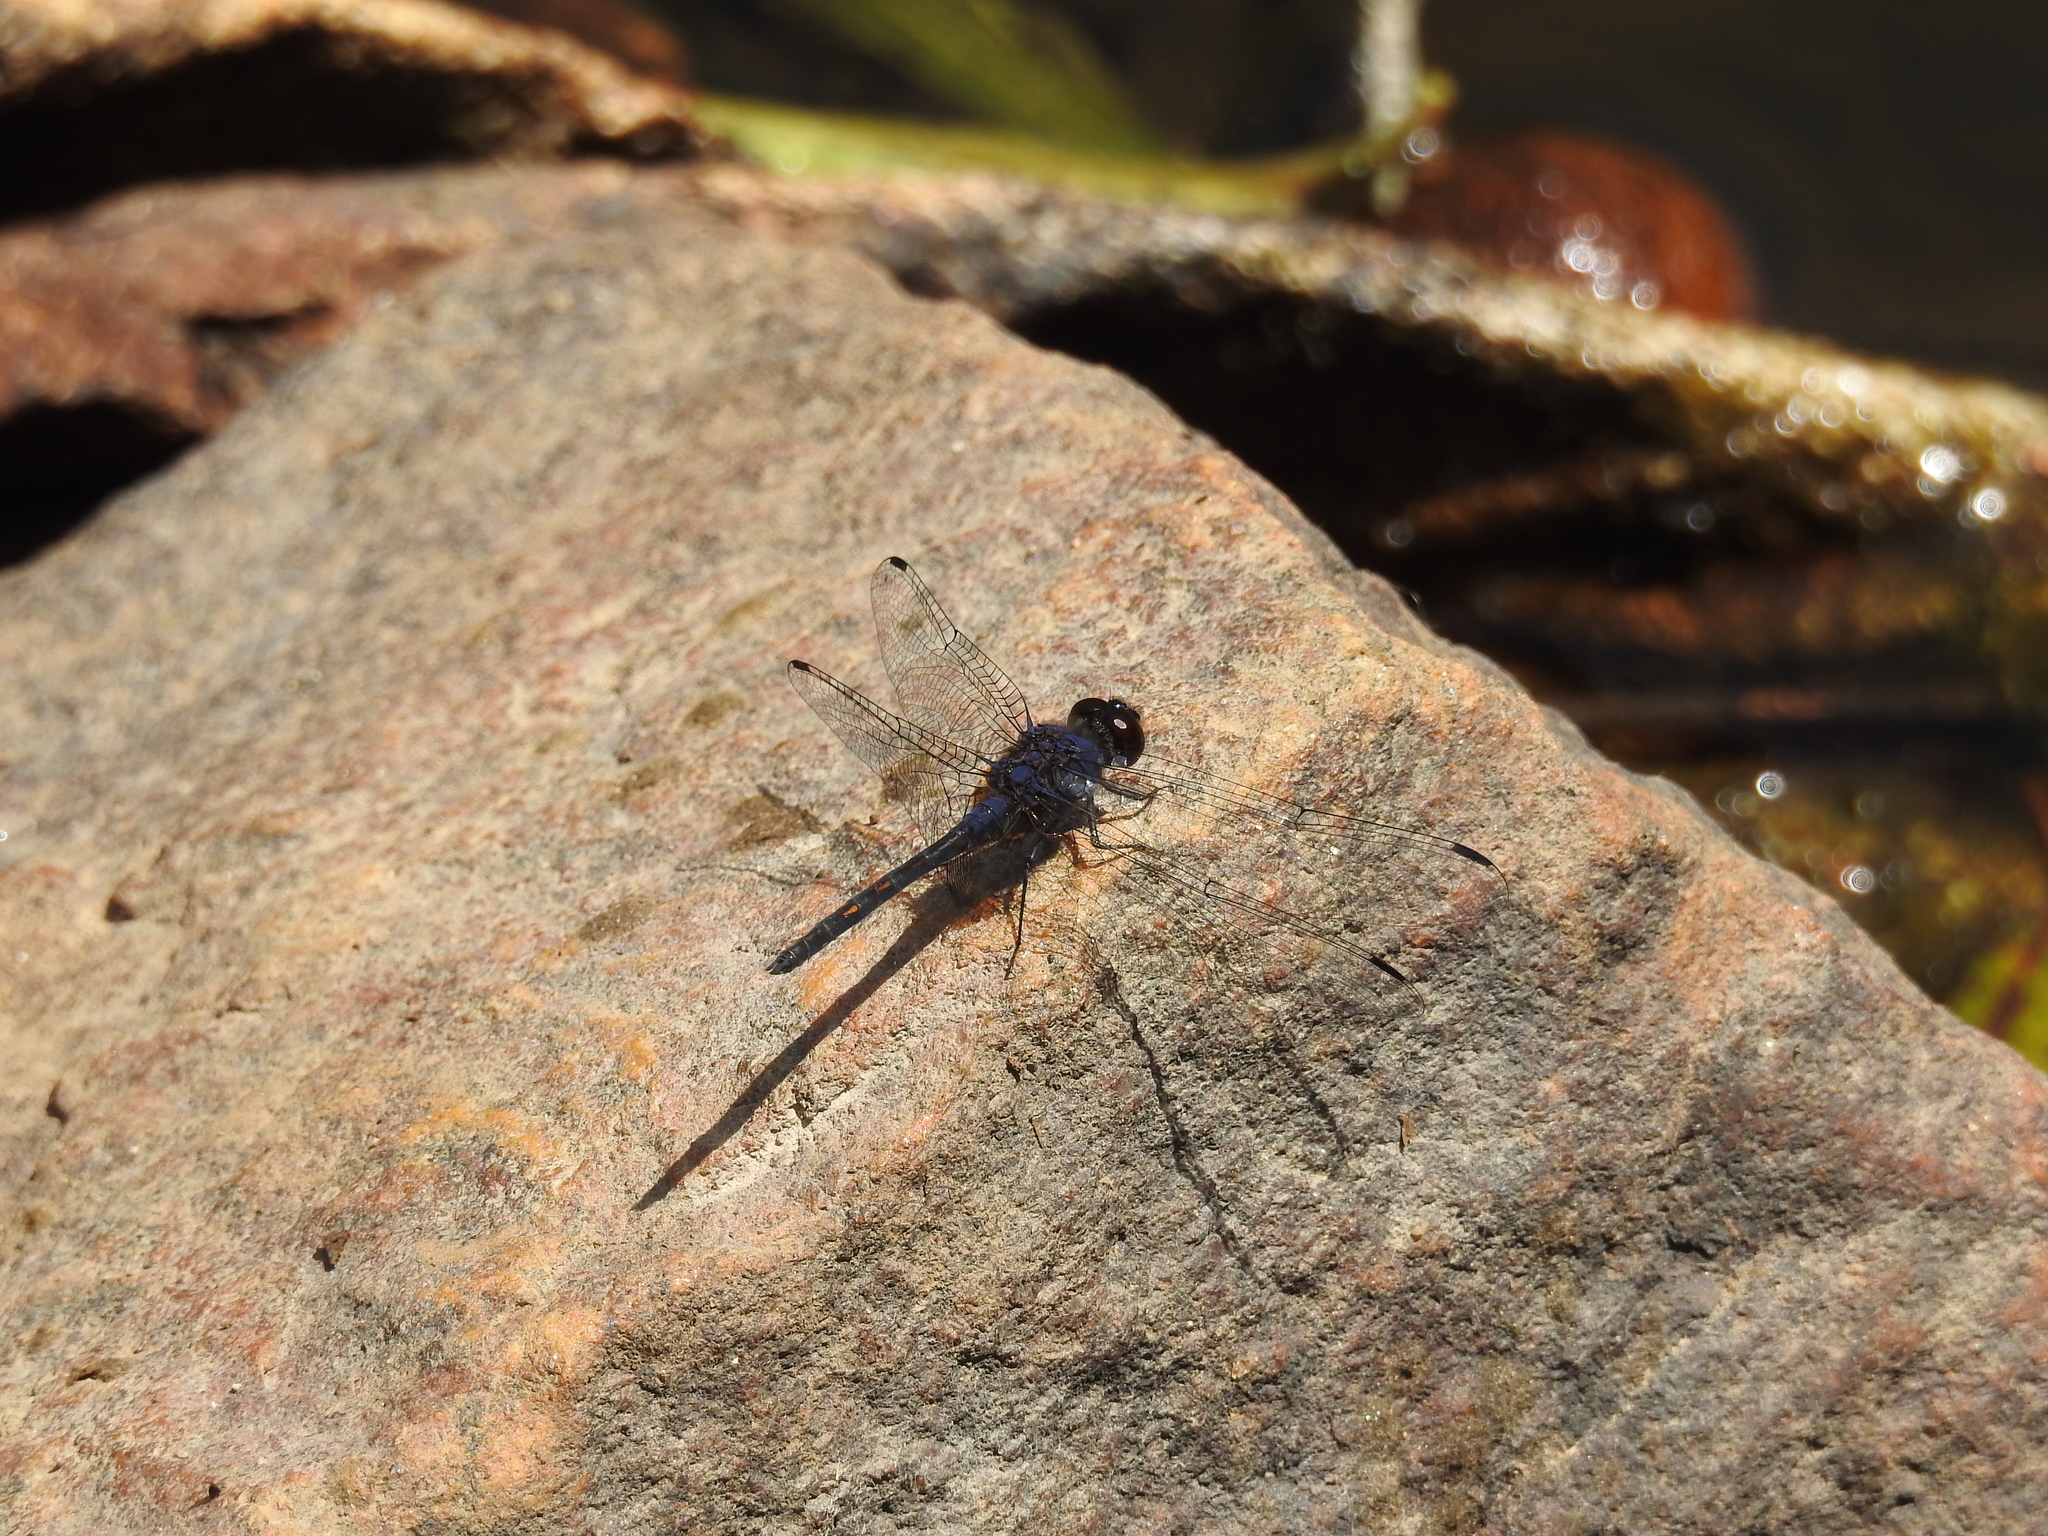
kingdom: Animalia
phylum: Arthropoda
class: Insecta
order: Odonata
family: Libellulidae
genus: Trithemis
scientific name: Trithemis festiva
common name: Indigo dropwing
